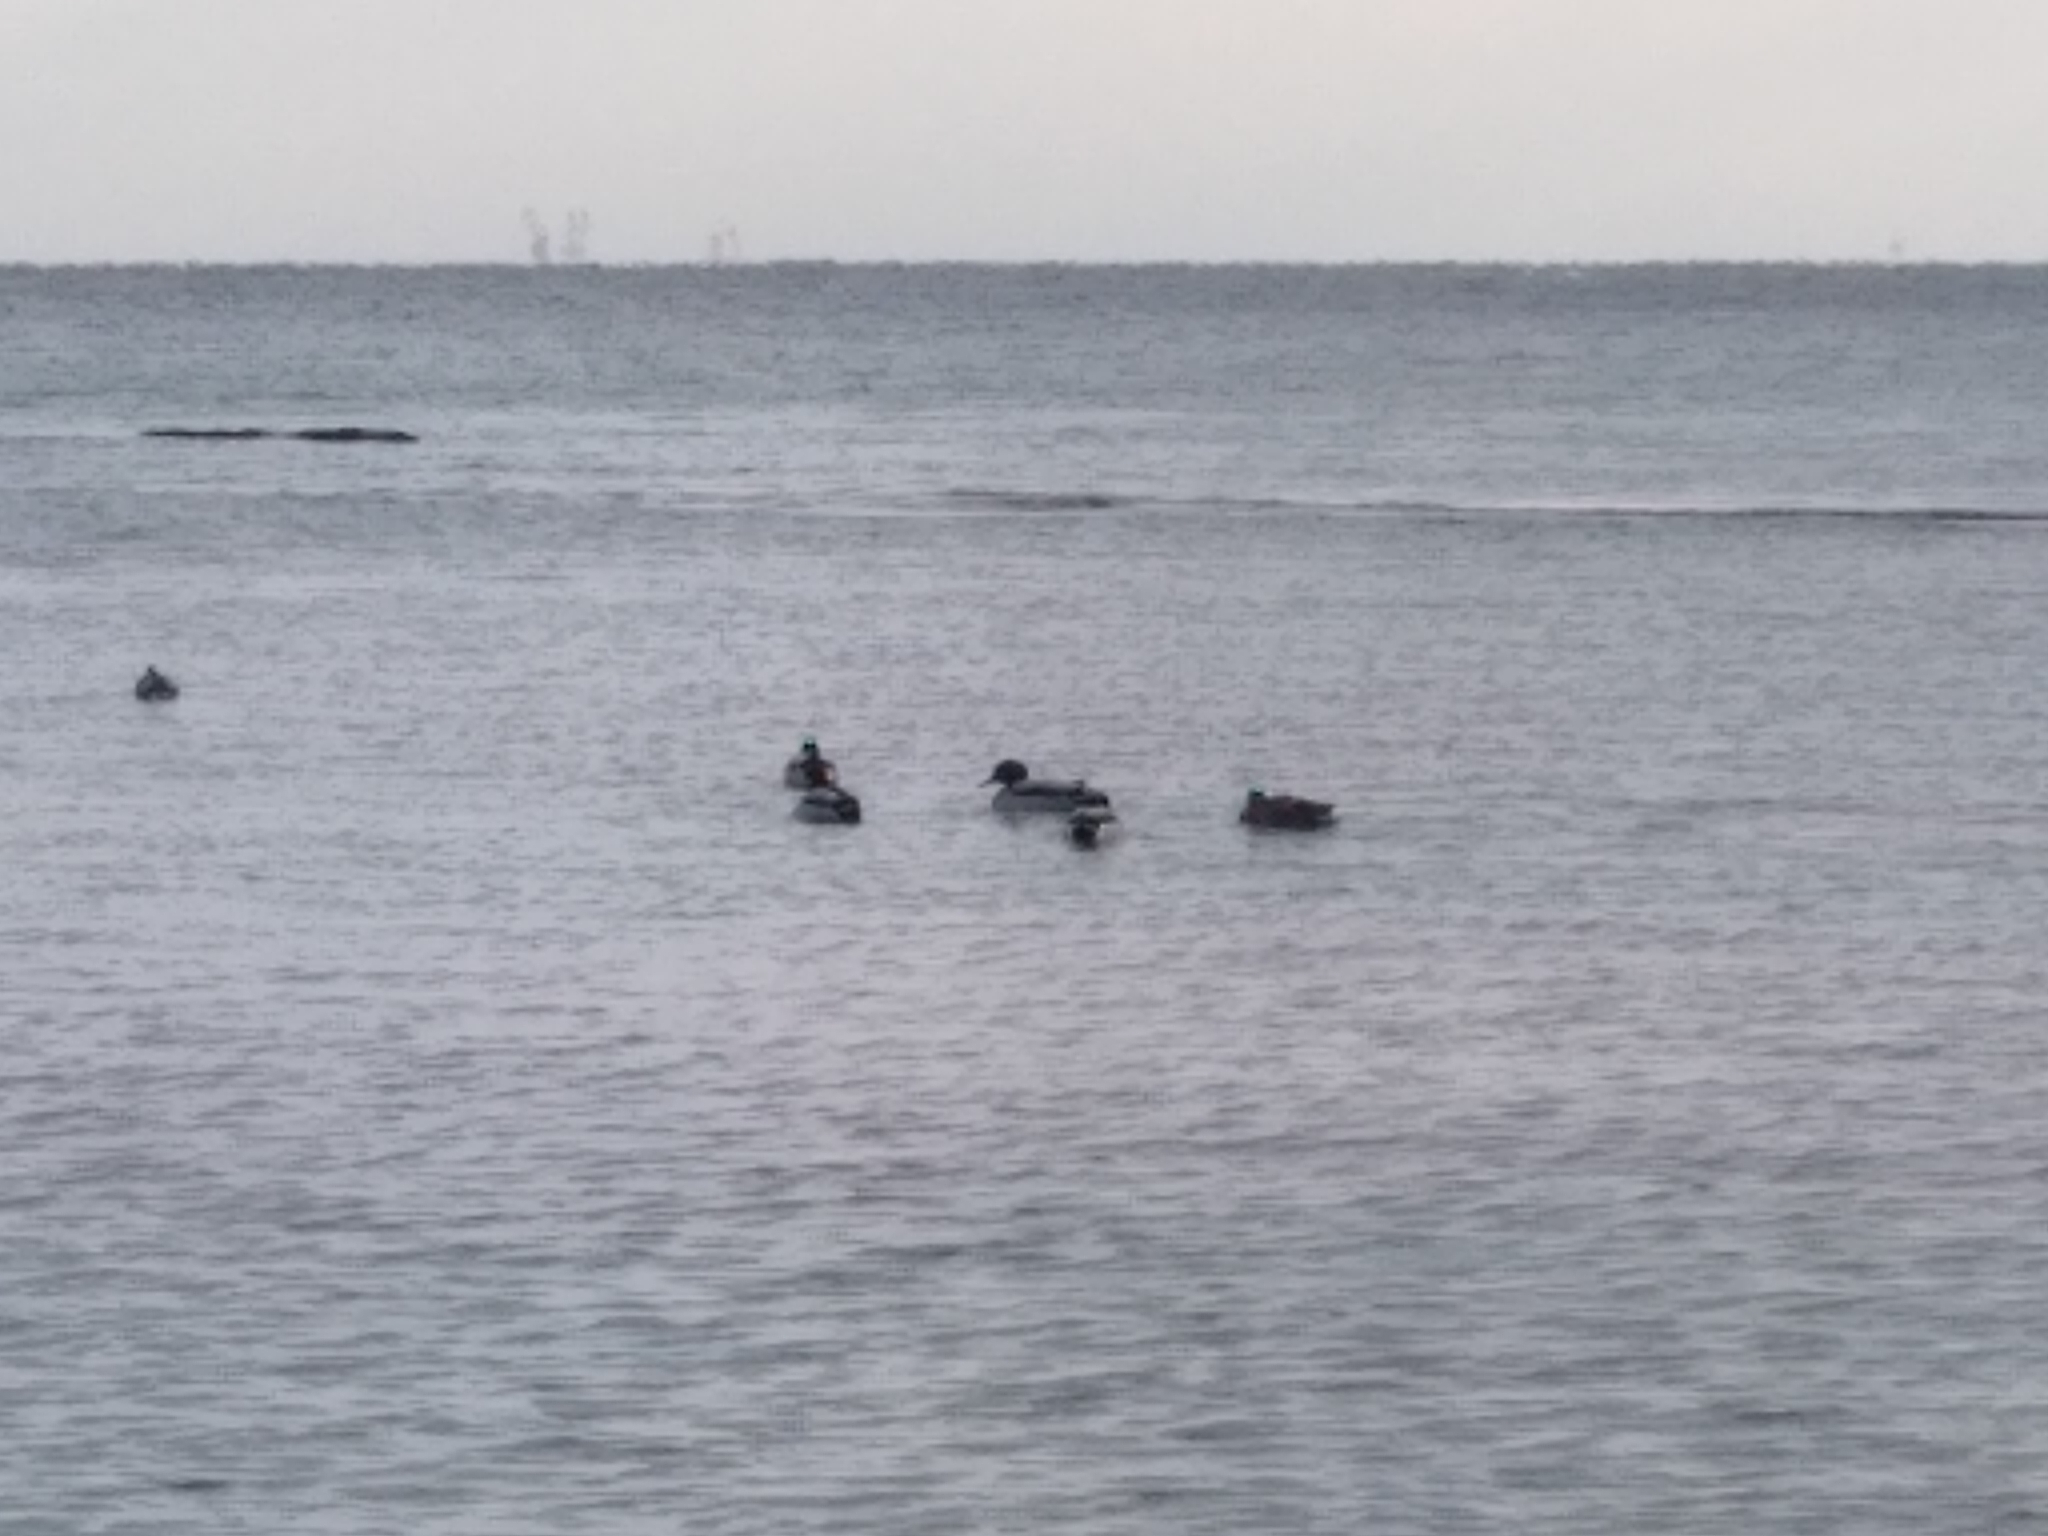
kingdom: Animalia
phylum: Chordata
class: Aves
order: Anseriformes
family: Anatidae
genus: Anas
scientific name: Anas platyrhynchos
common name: Mallard
